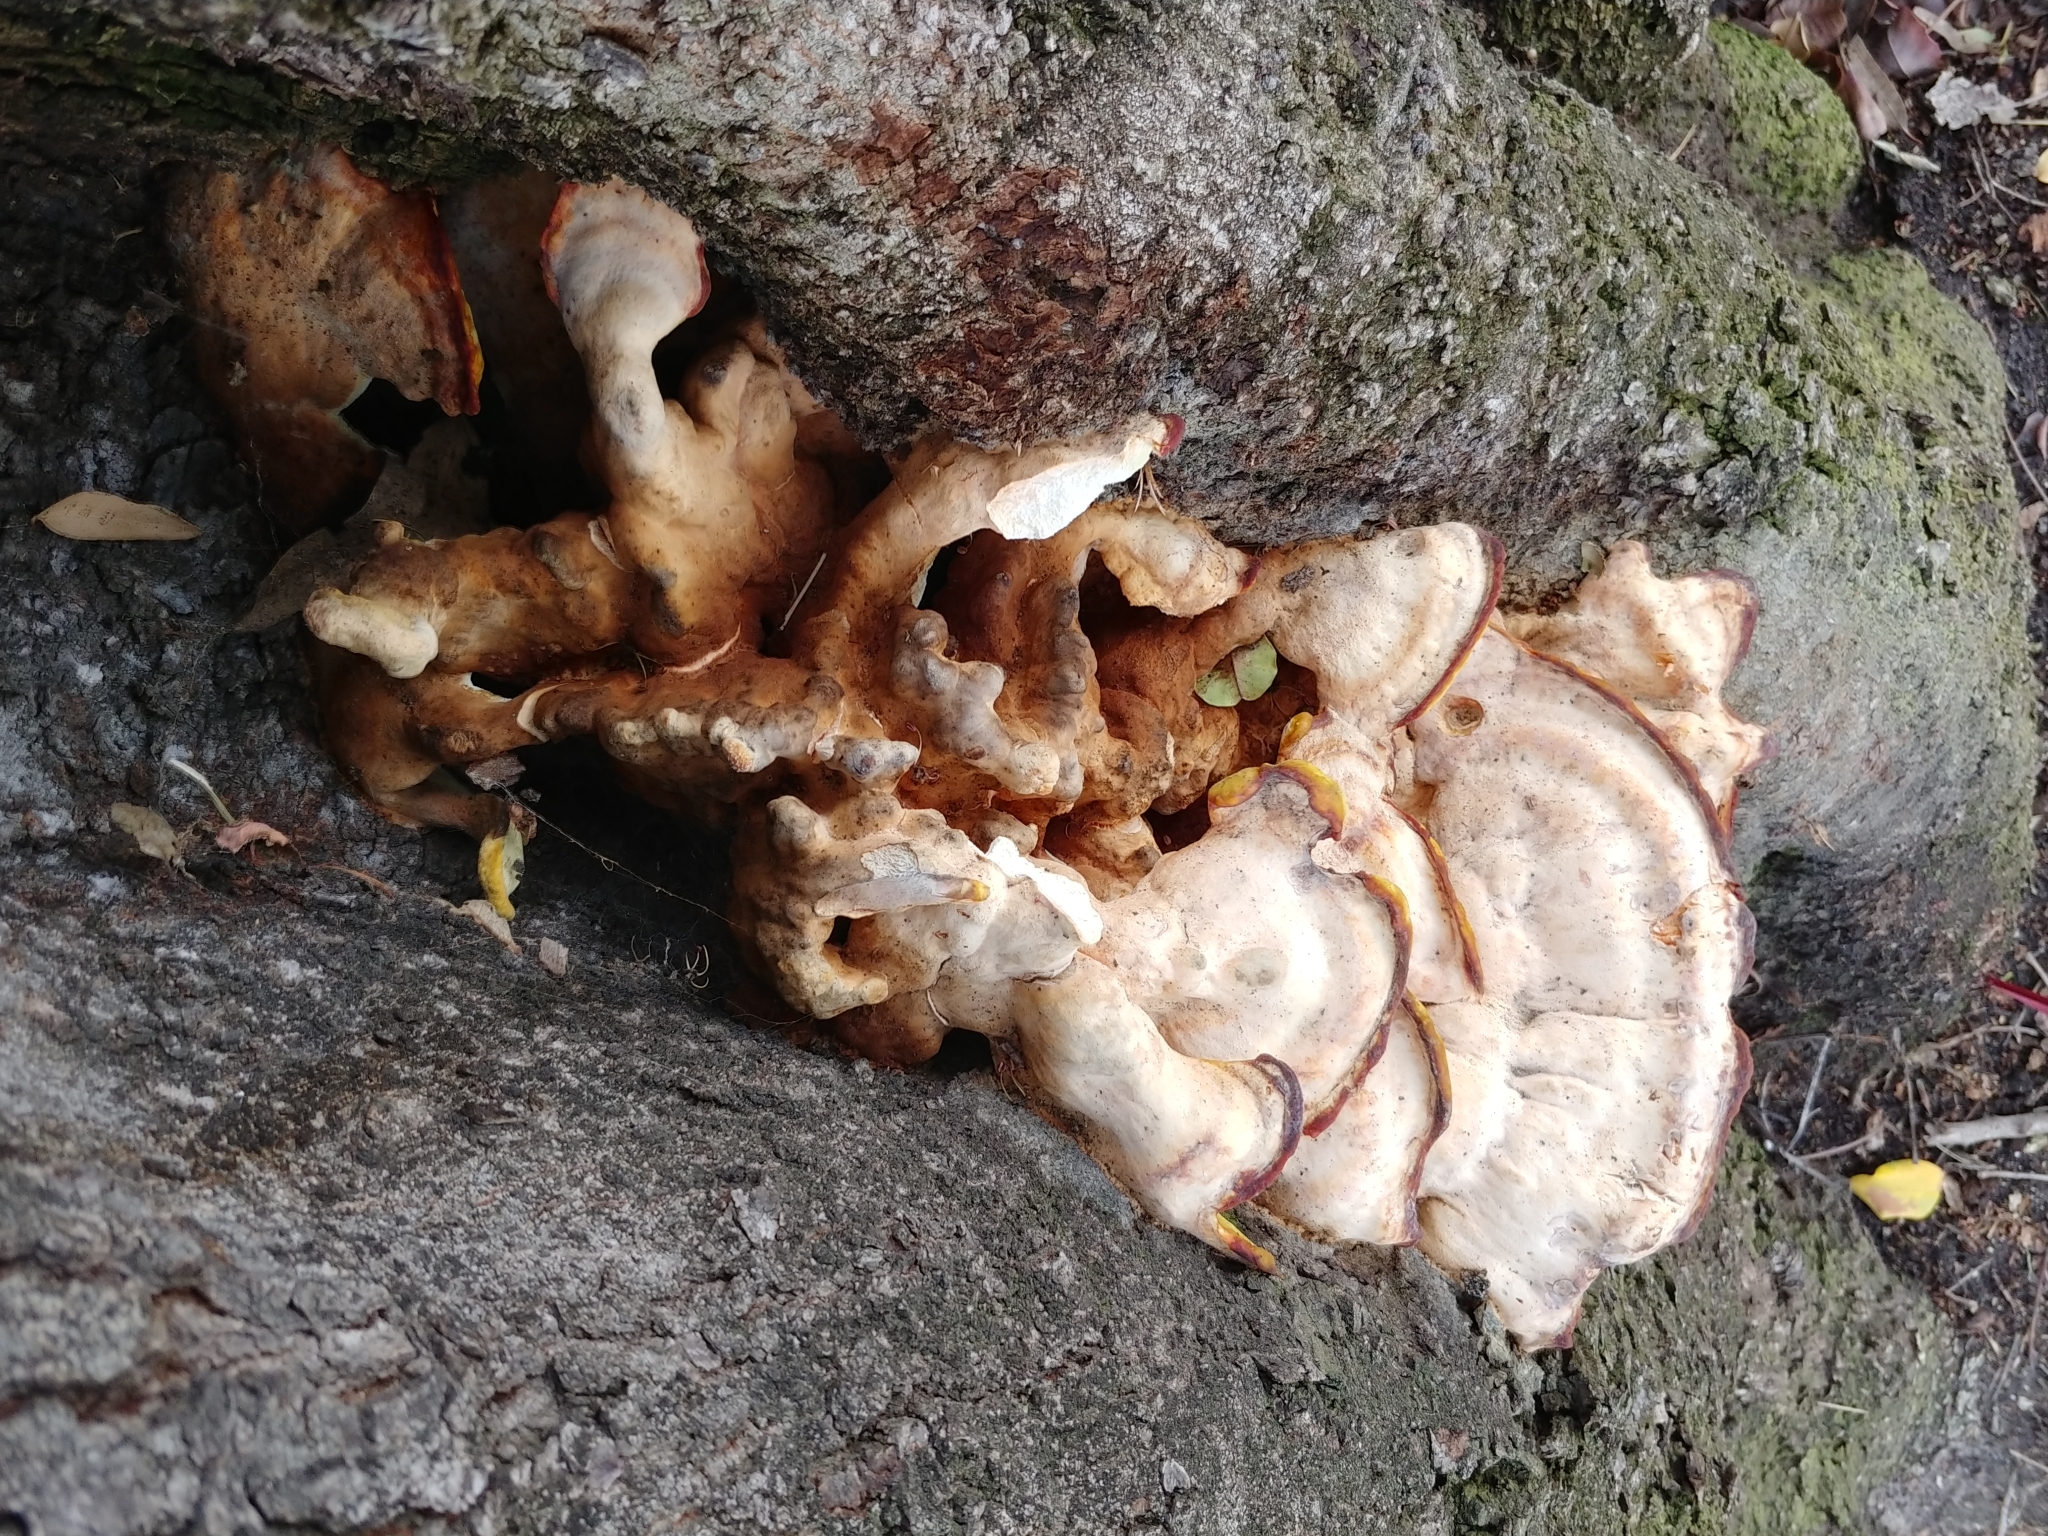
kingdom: Fungi
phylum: Basidiomycota
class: Agaricomycetes
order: Polyporales
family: Laetiporaceae
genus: Laetiporus
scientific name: Laetiporus gilbertsonii
